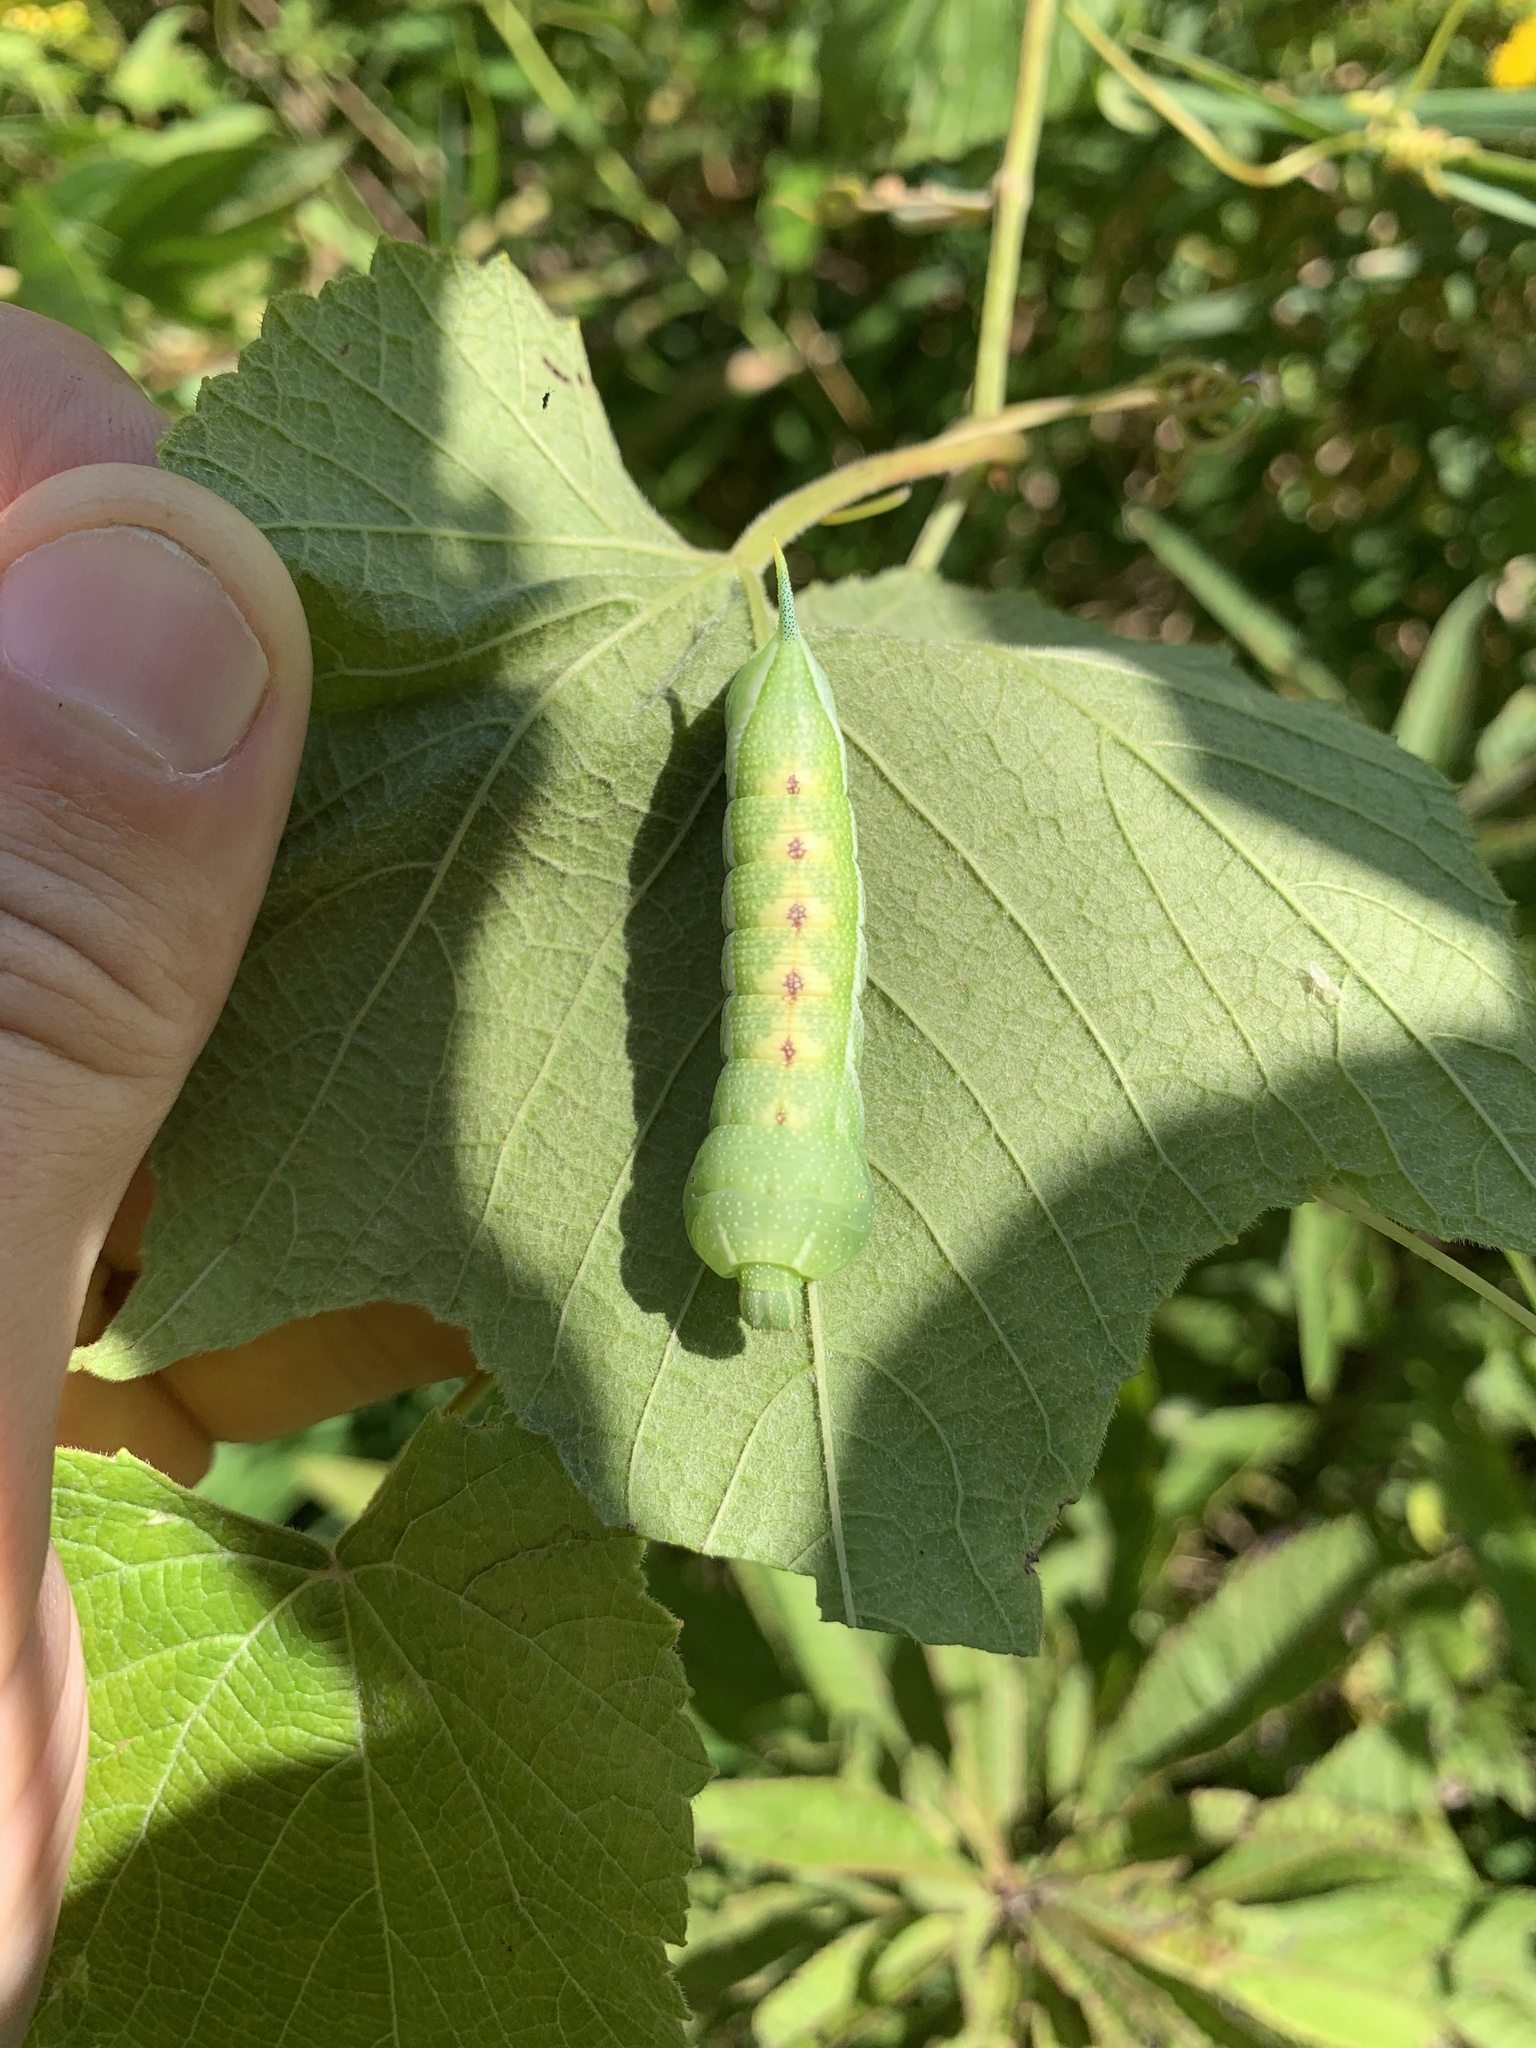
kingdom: Animalia
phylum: Arthropoda
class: Insecta
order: Lepidoptera
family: Sphingidae
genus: Darapsa
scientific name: Darapsa myron
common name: Hog sphinx
